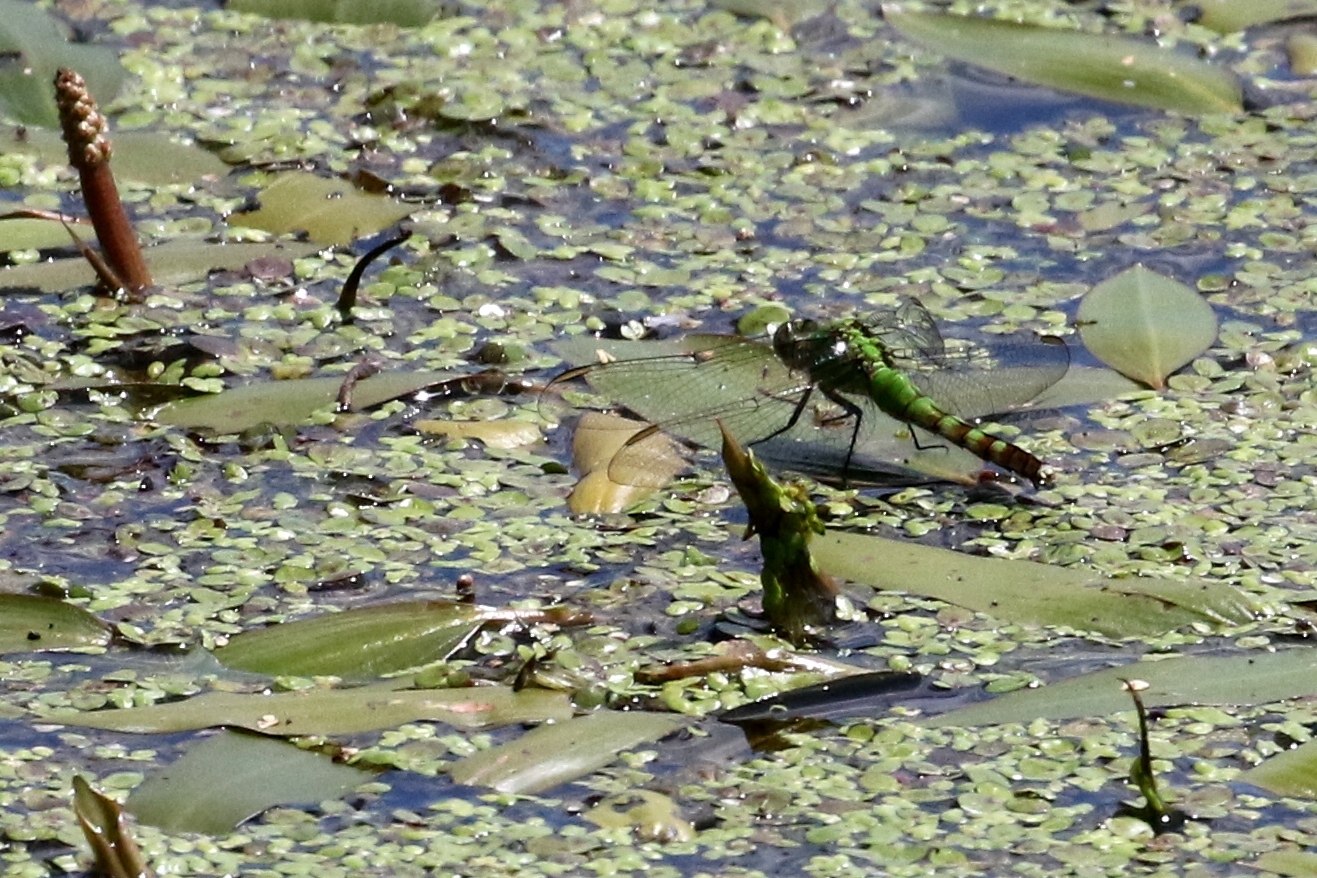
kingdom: Animalia
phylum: Arthropoda
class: Insecta
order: Odonata
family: Libellulidae
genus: Erythemis
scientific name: Erythemis simplicicollis
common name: Eastern pondhawk
